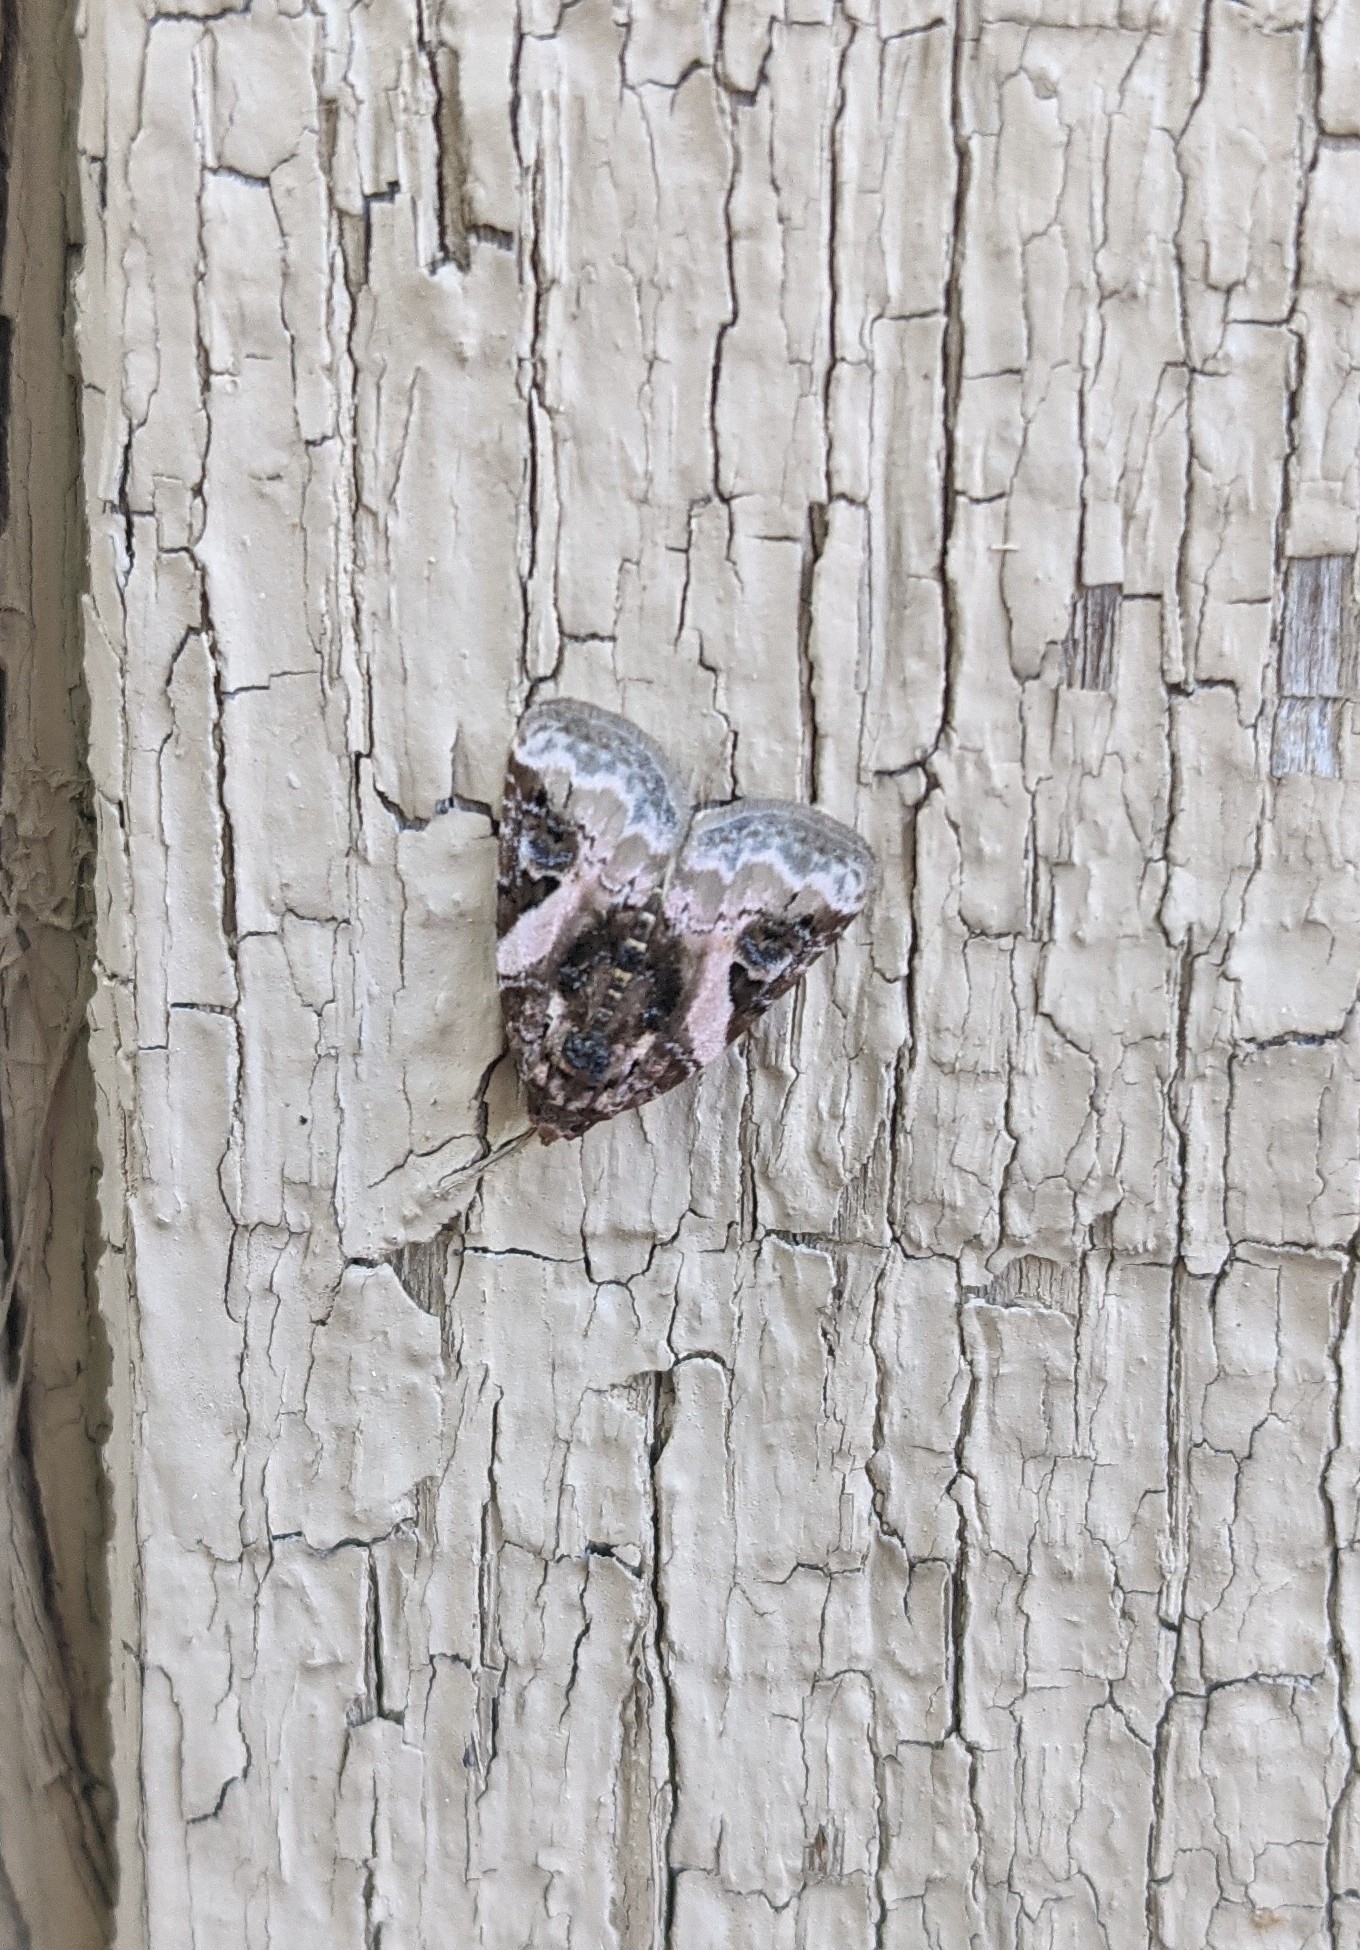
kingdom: Animalia
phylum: Arthropoda
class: Insecta
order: Lepidoptera
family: Noctuidae
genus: Pseudeustrotia
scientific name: Pseudeustrotia carneola
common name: Pink-barred lithacodia moth
